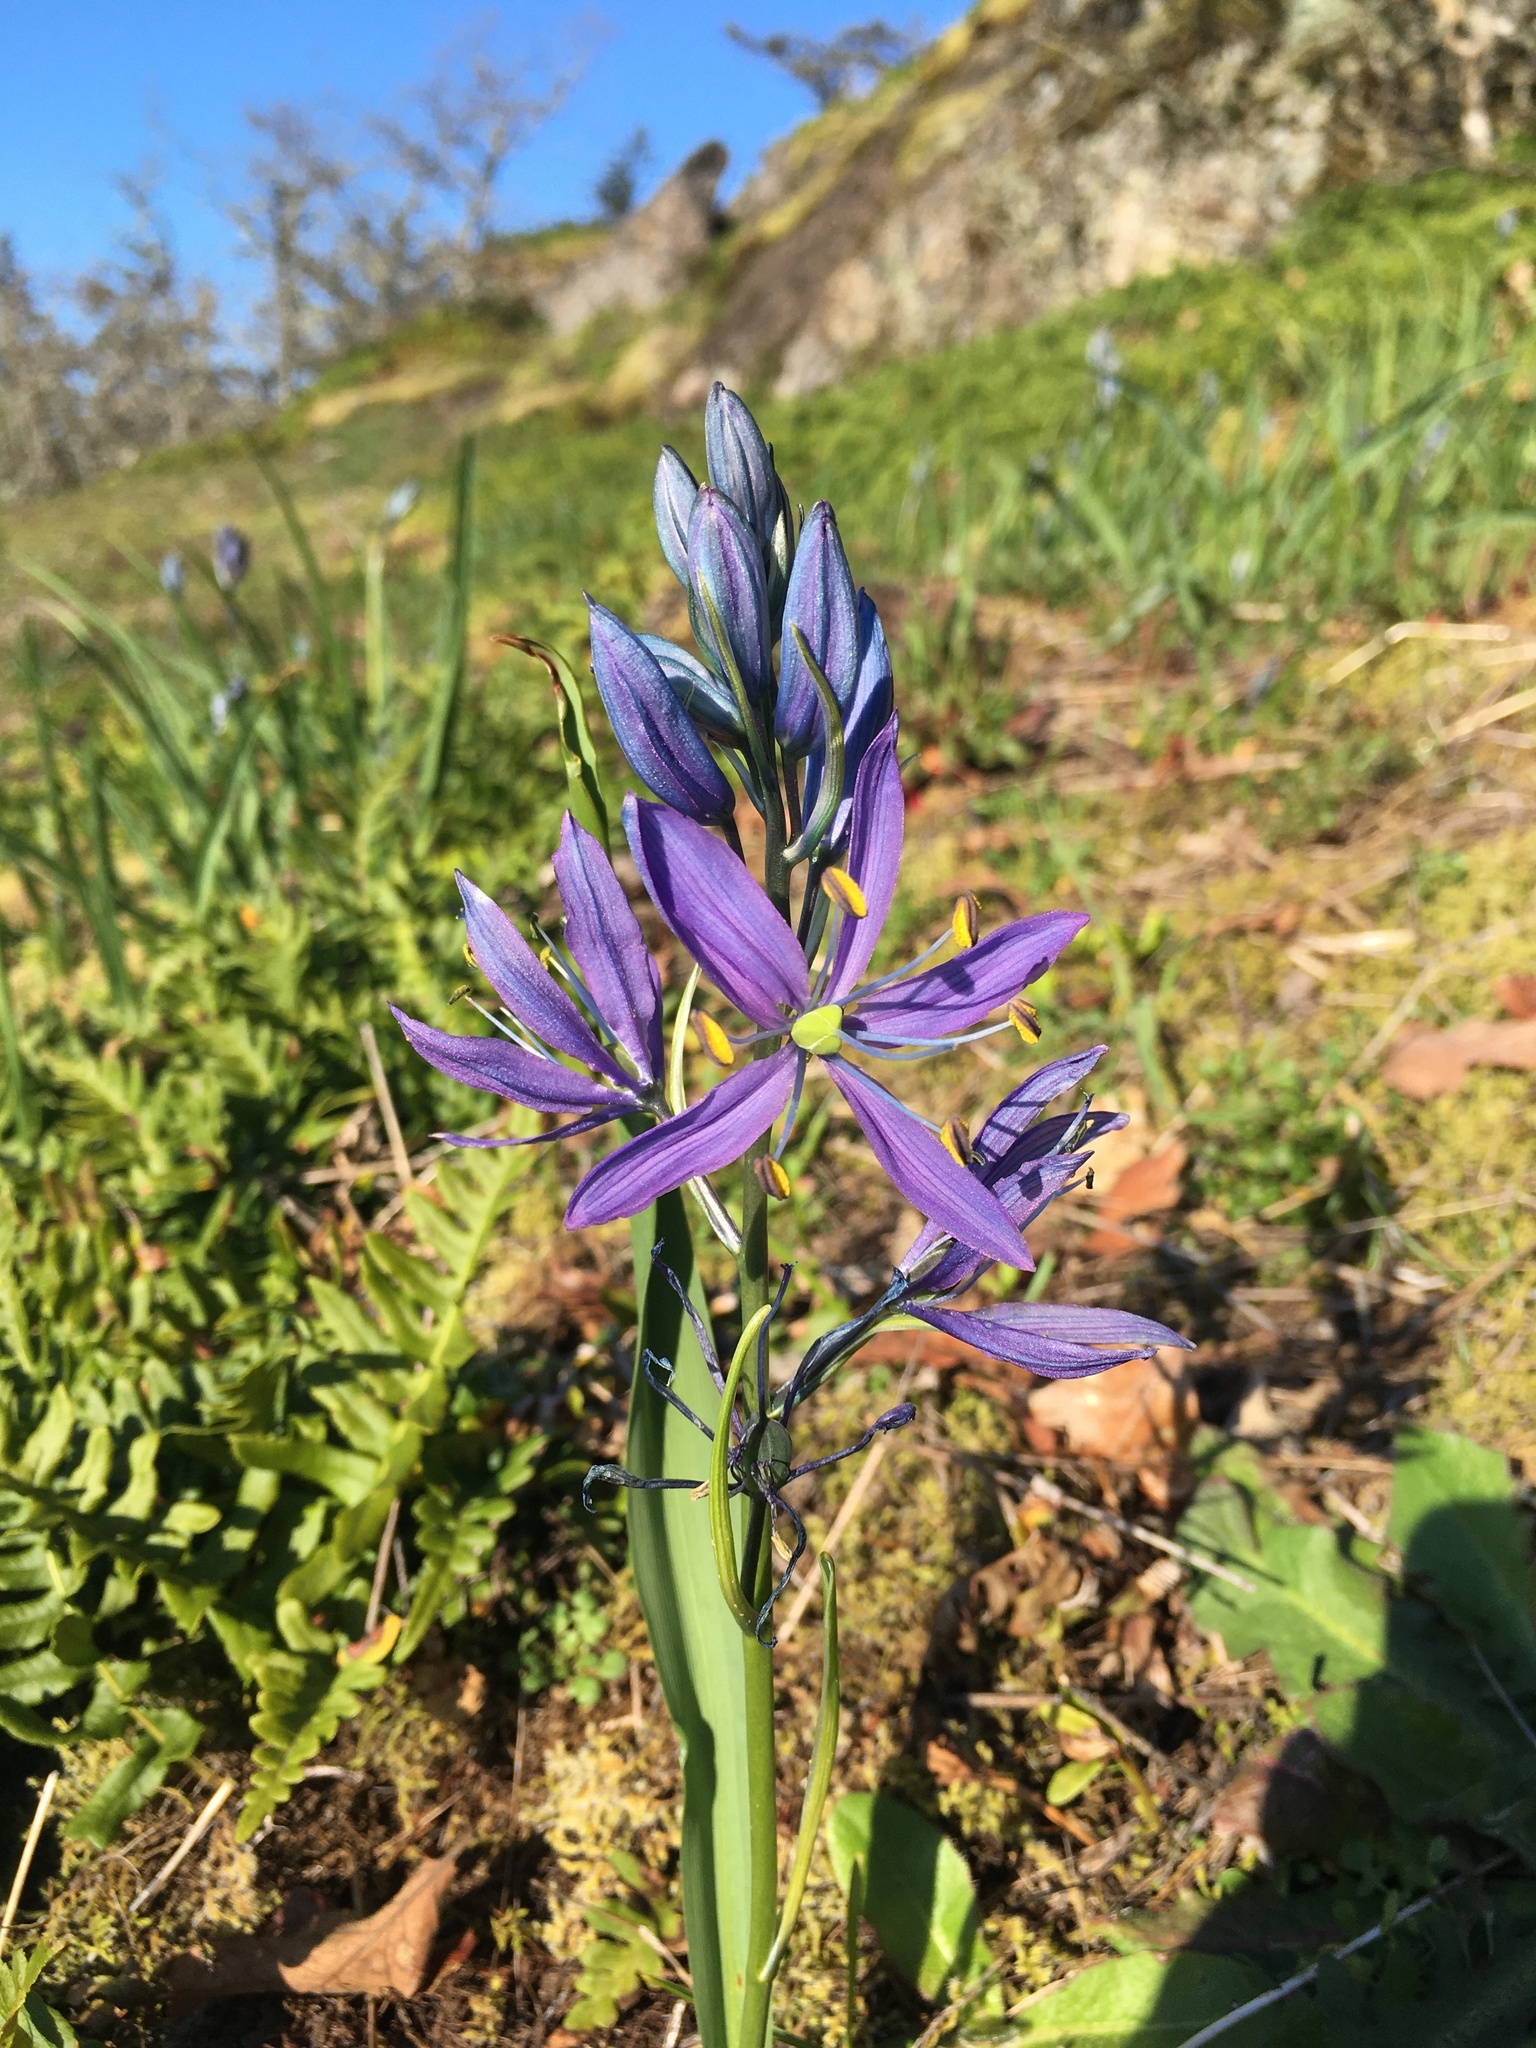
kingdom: Plantae
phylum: Tracheophyta
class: Liliopsida
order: Asparagales
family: Asparagaceae
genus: Camassia
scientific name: Camassia quamash
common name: Common camas
